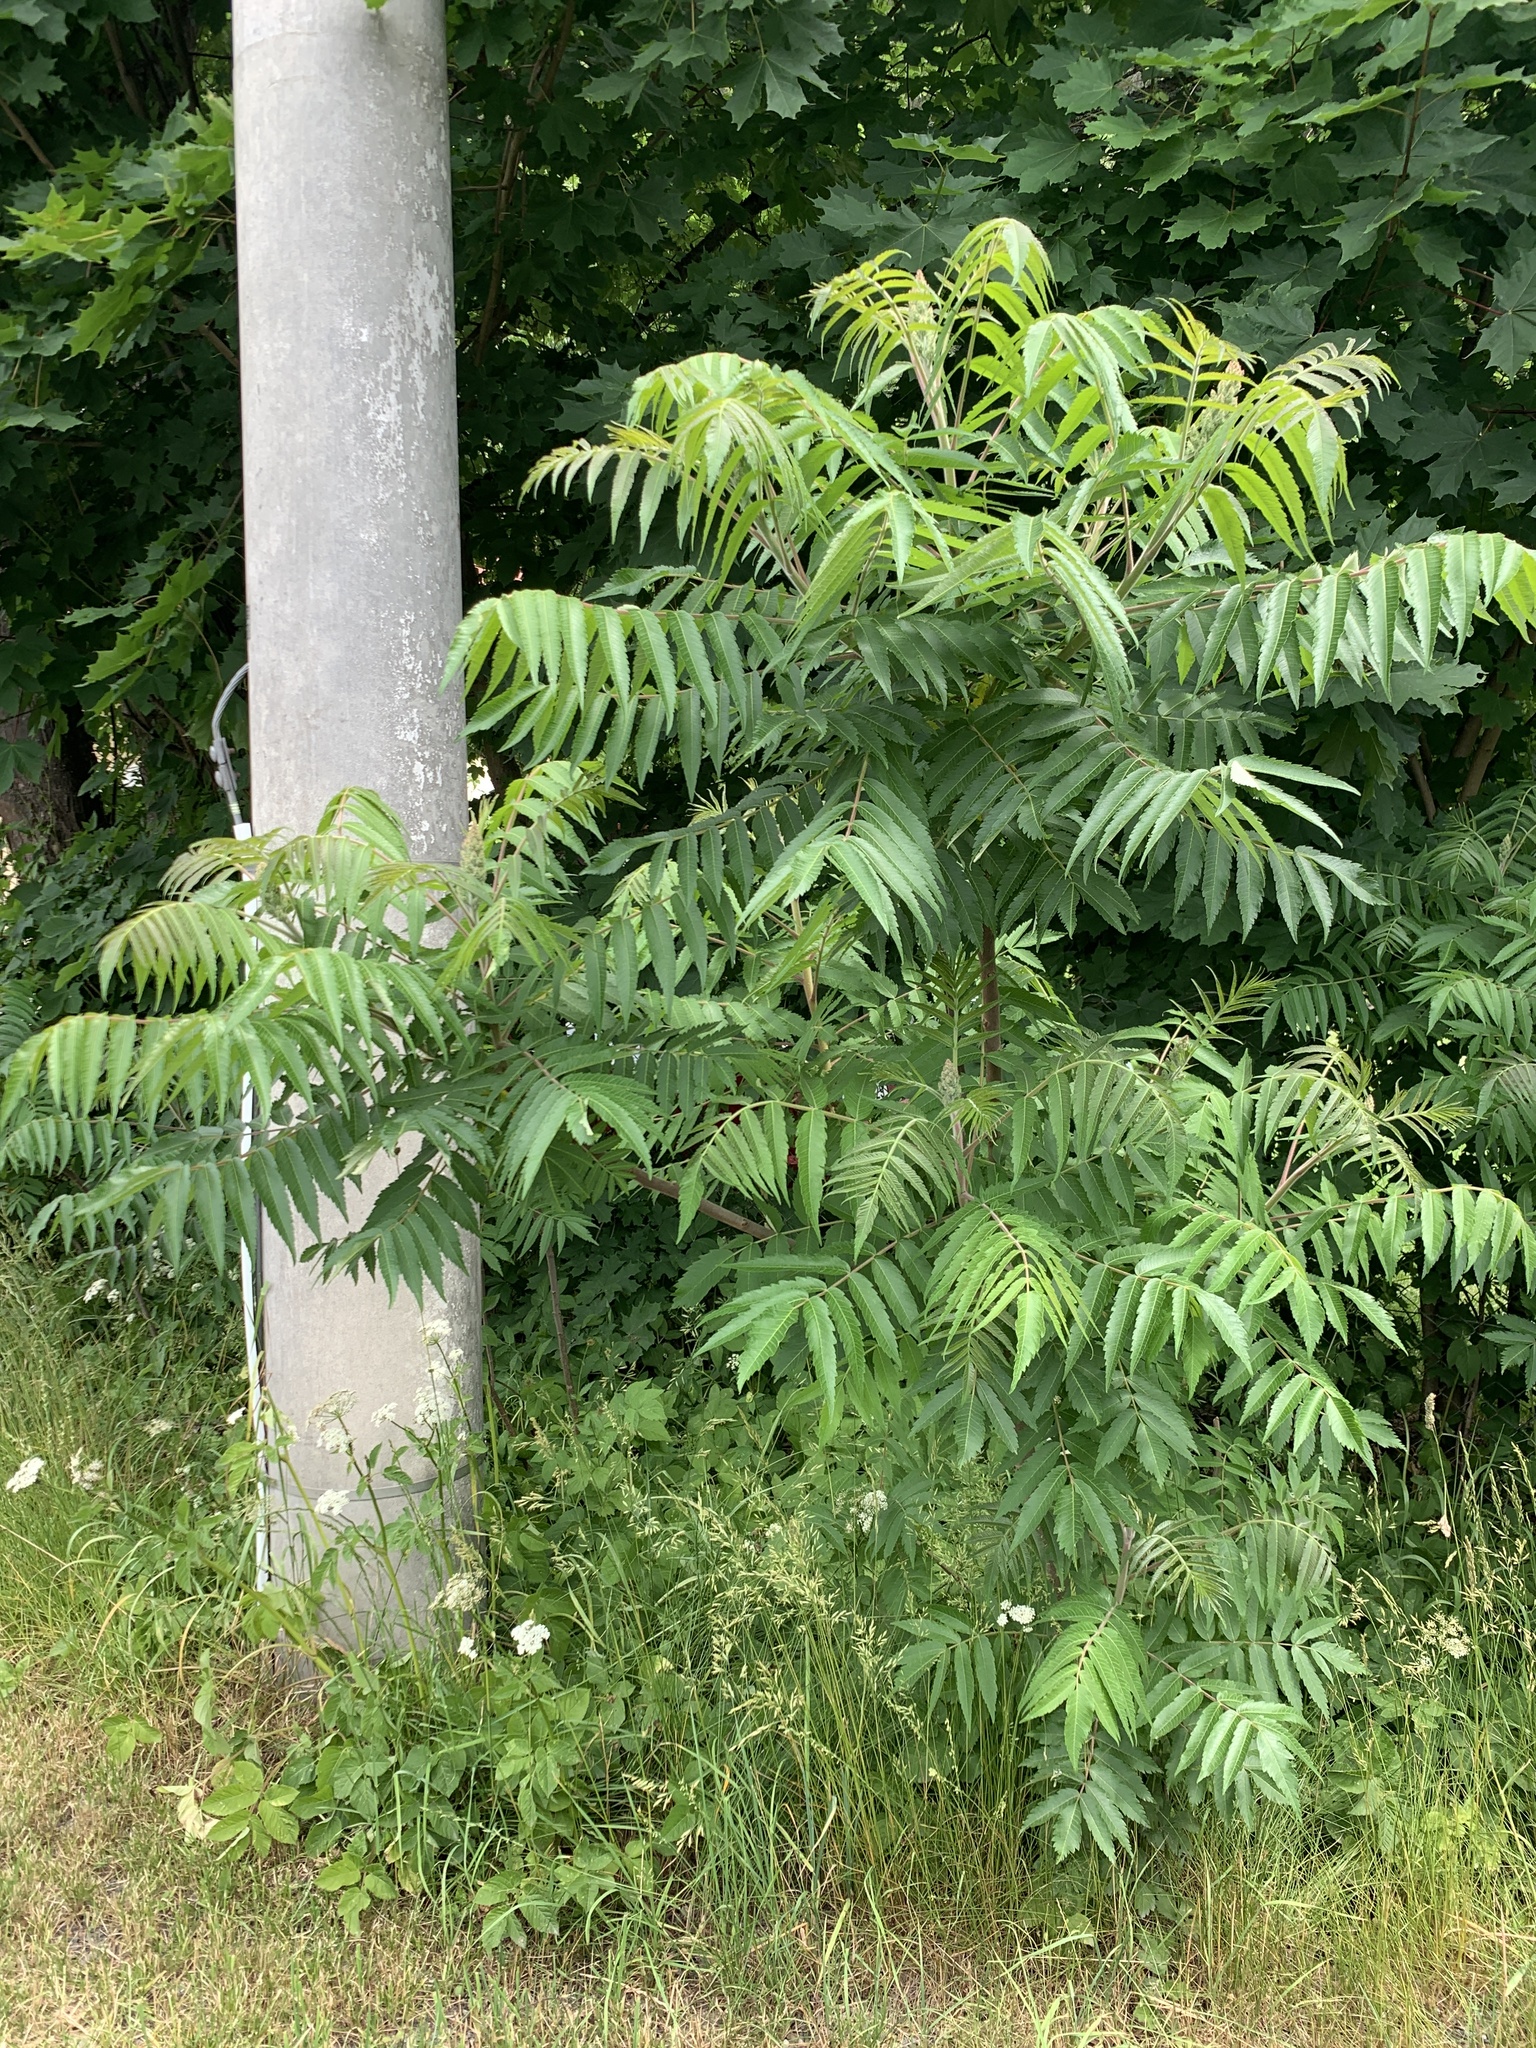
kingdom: Plantae
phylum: Tracheophyta
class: Magnoliopsida
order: Sapindales
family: Anacardiaceae
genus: Rhus
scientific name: Rhus typhina
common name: Staghorn sumac
